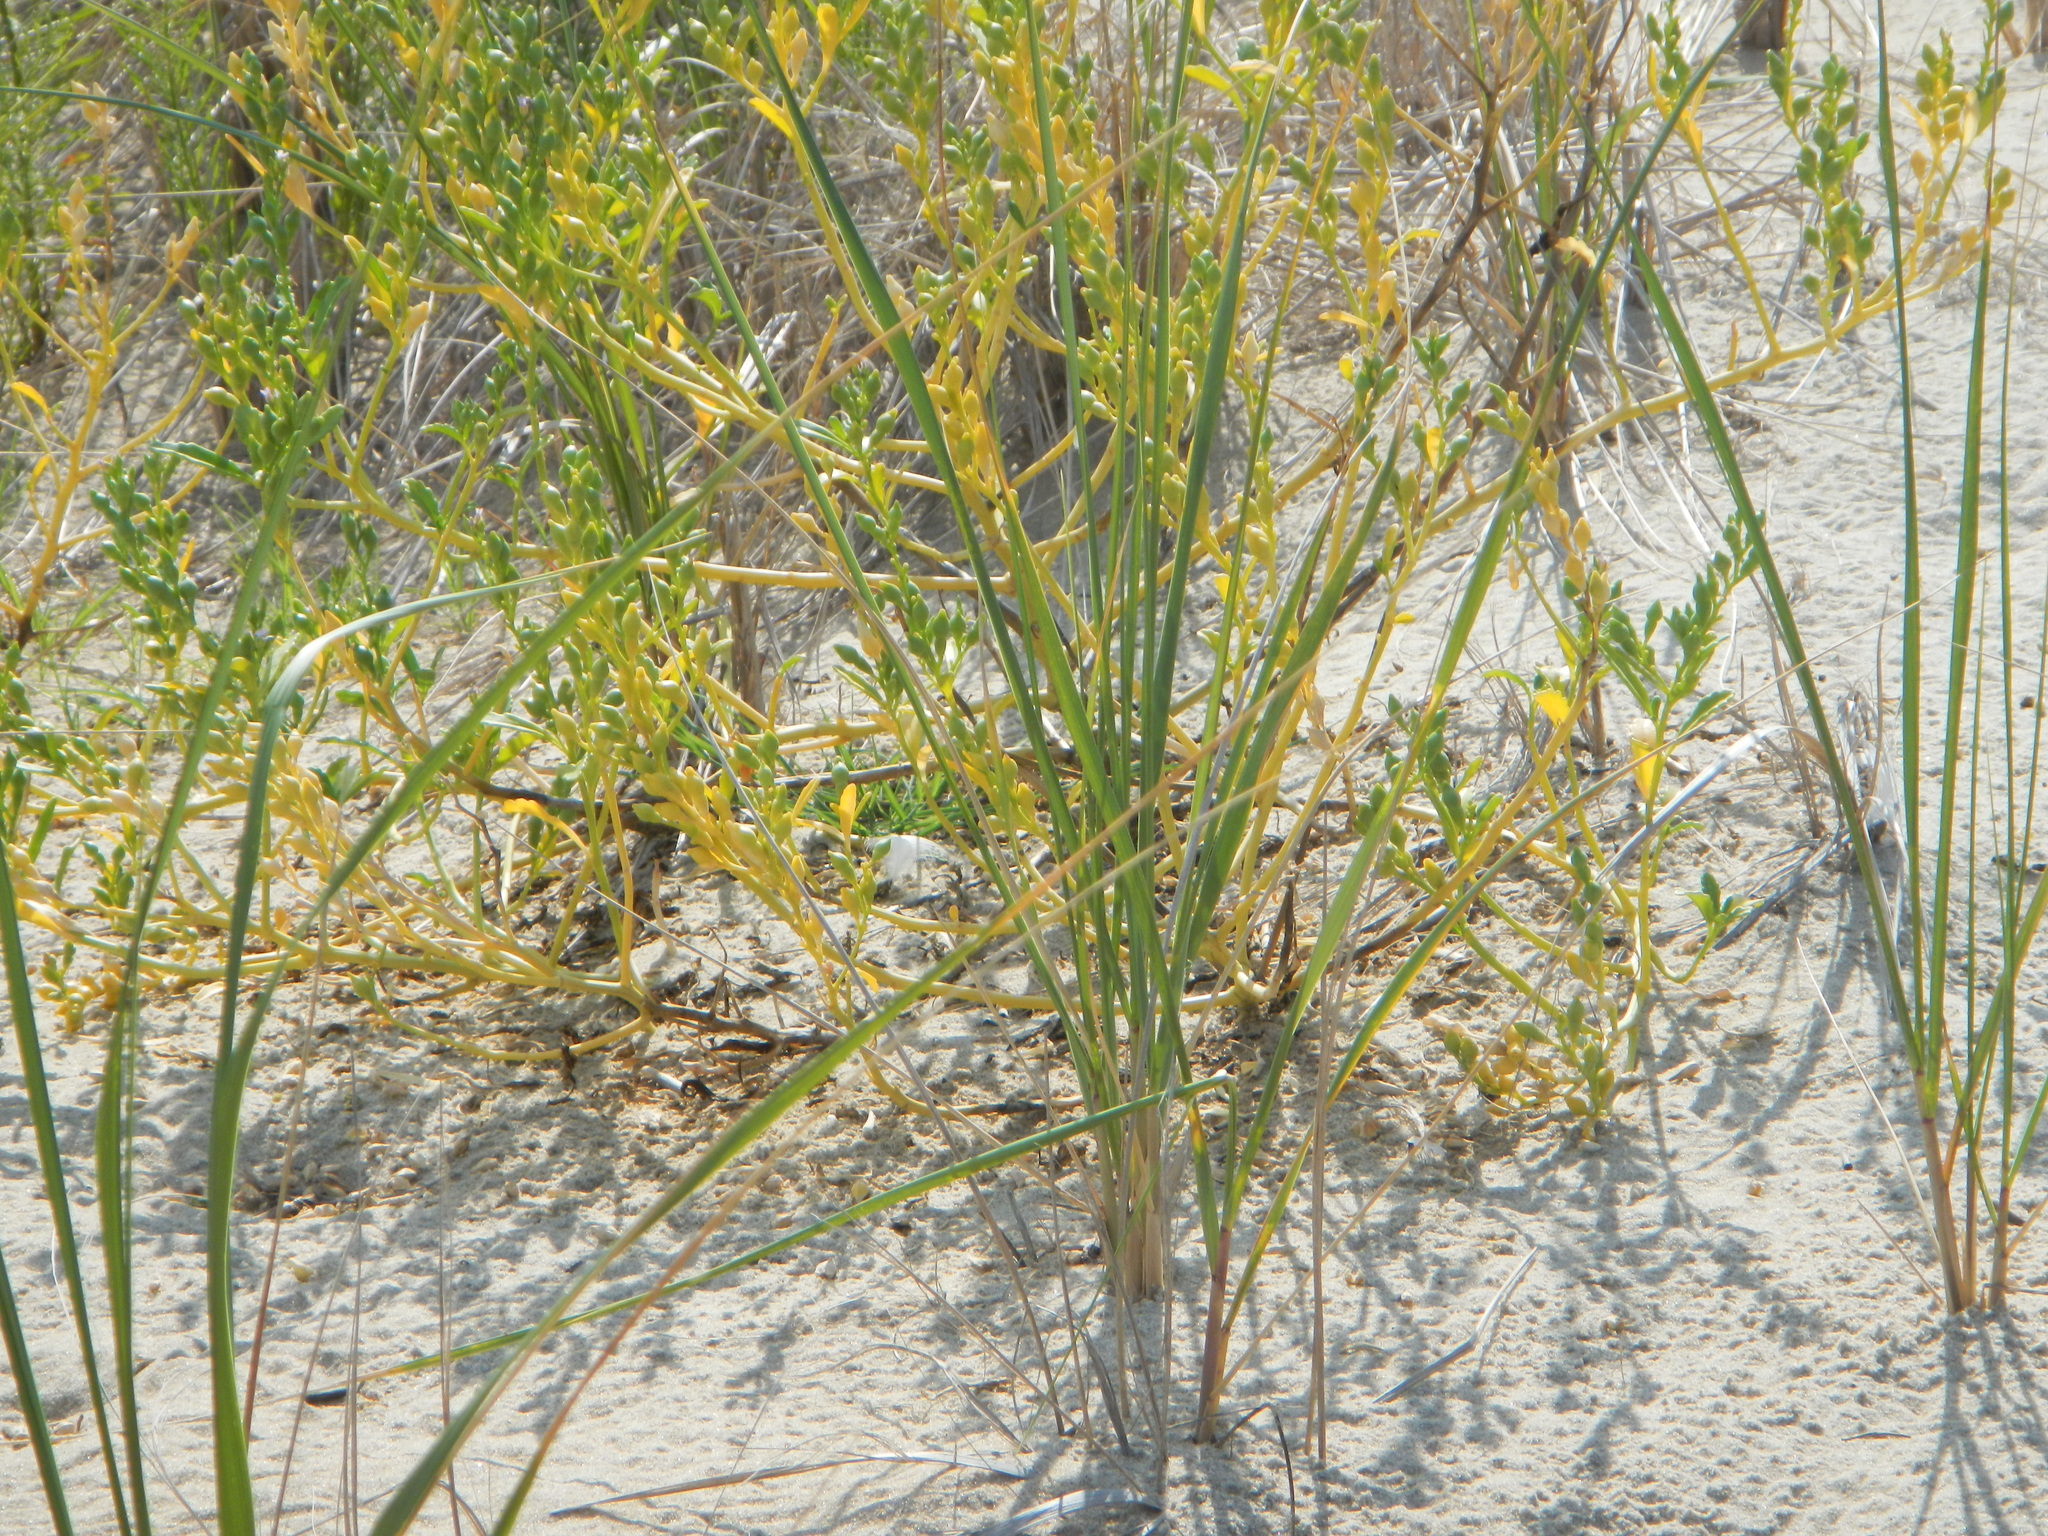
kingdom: Plantae
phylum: Tracheophyta
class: Magnoliopsida
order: Brassicales
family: Brassicaceae
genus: Cakile
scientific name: Cakile edentula
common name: American sea rocket
